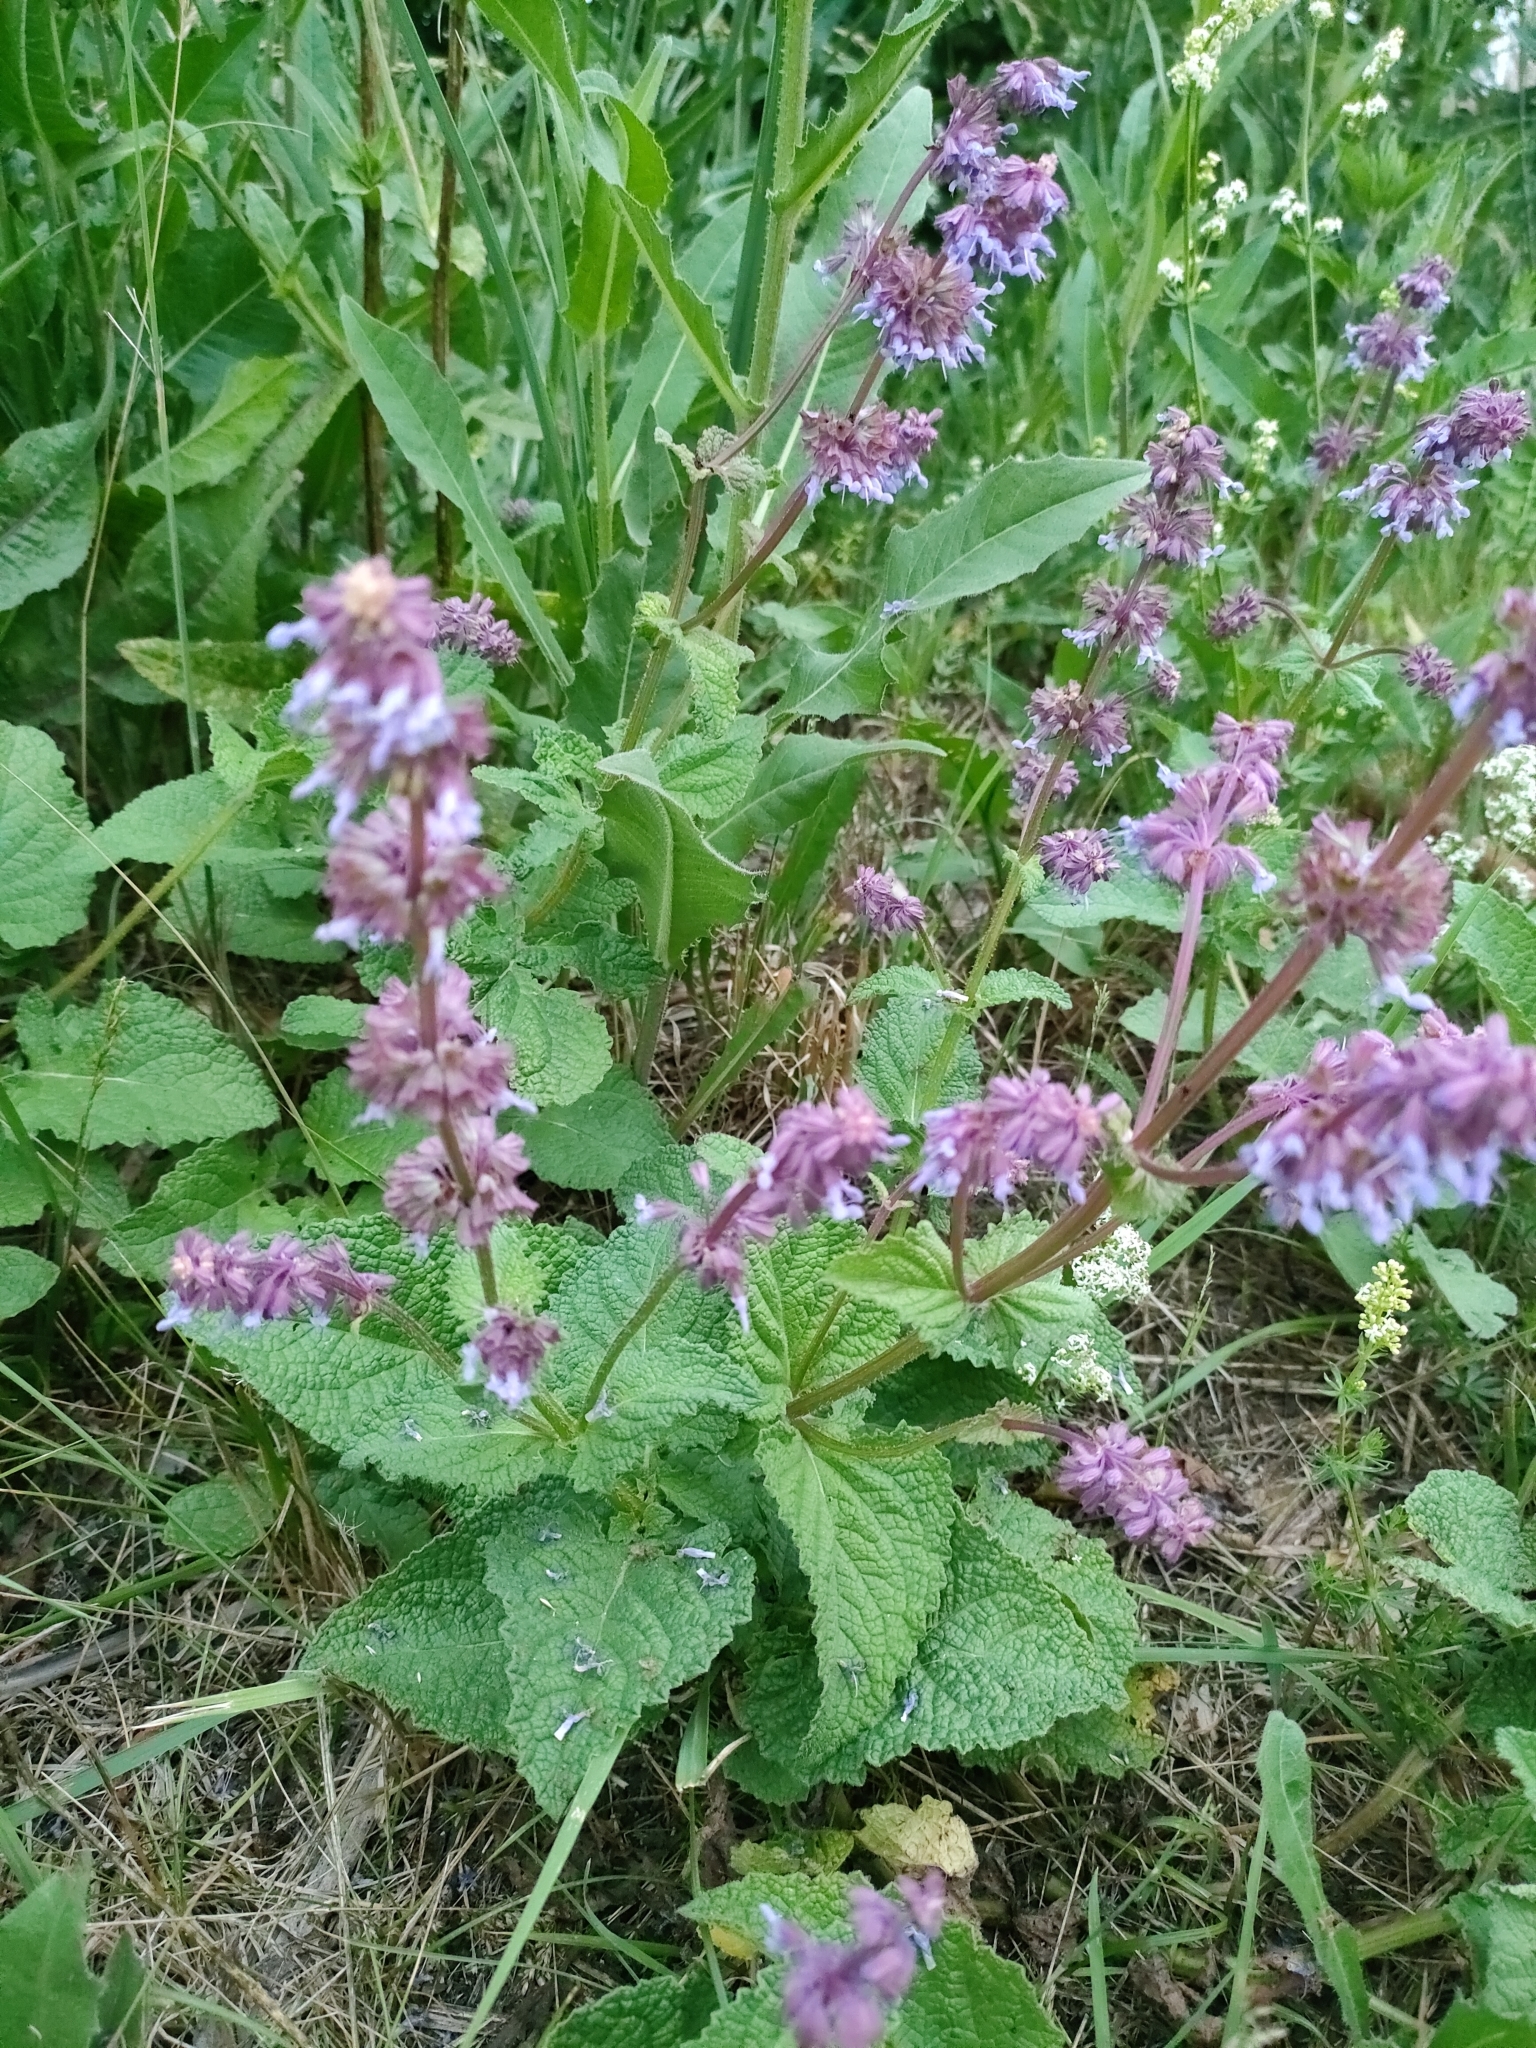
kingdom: Plantae
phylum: Tracheophyta
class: Magnoliopsida
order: Lamiales
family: Lamiaceae
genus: Salvia
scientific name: Salvia verticillata
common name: Whorled clary
